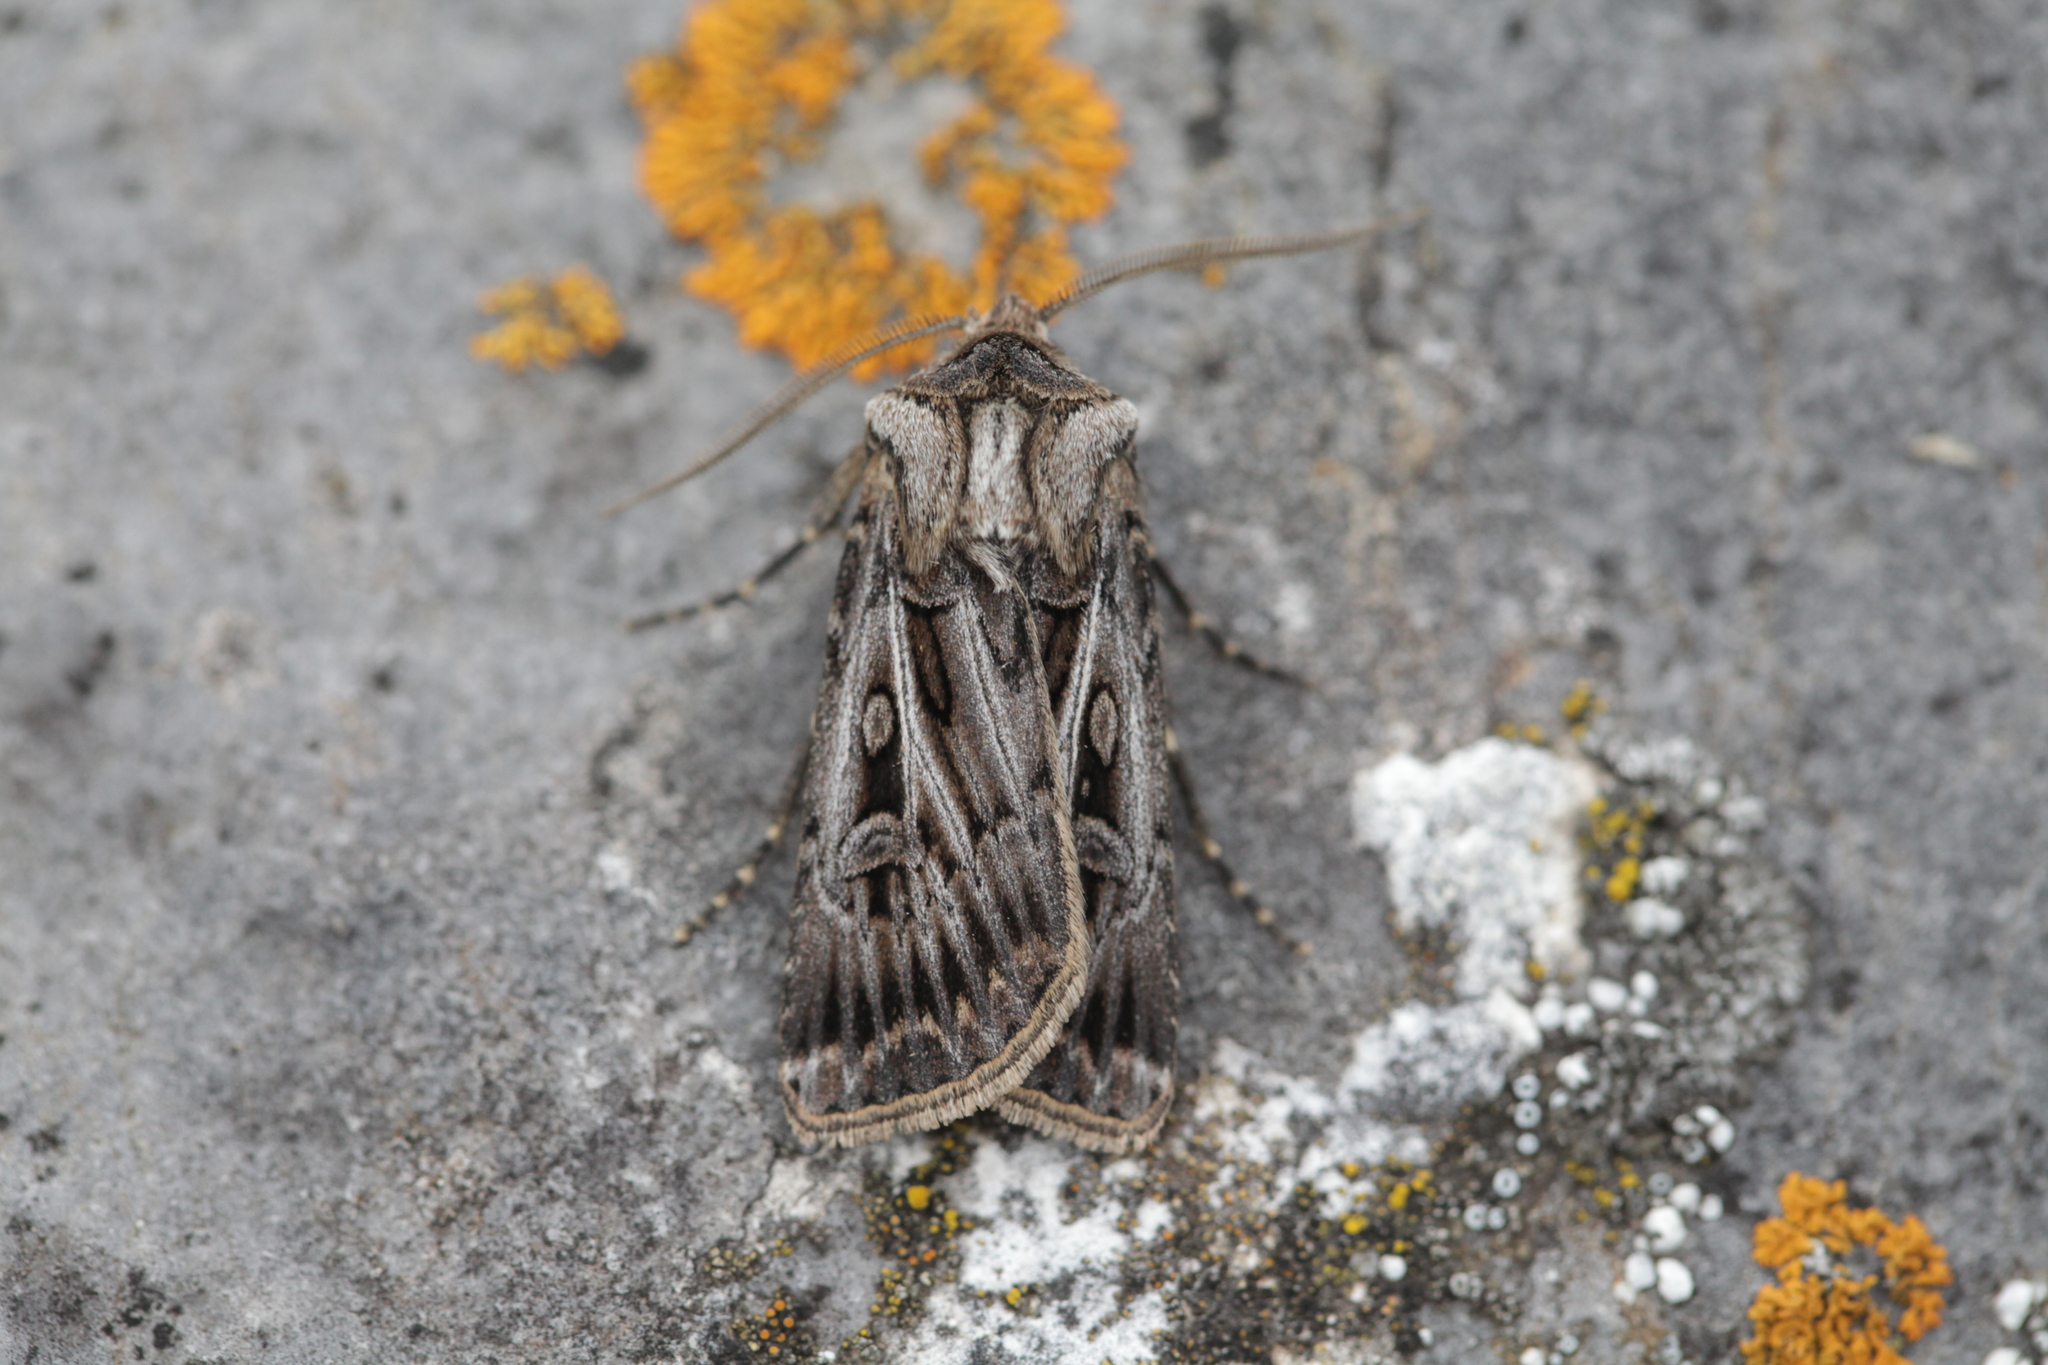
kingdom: Animalia
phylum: Arthropoda
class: Insecta
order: Lepidoptera
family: Noctuidae
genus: Agrotis
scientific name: Agrotis fatidica
